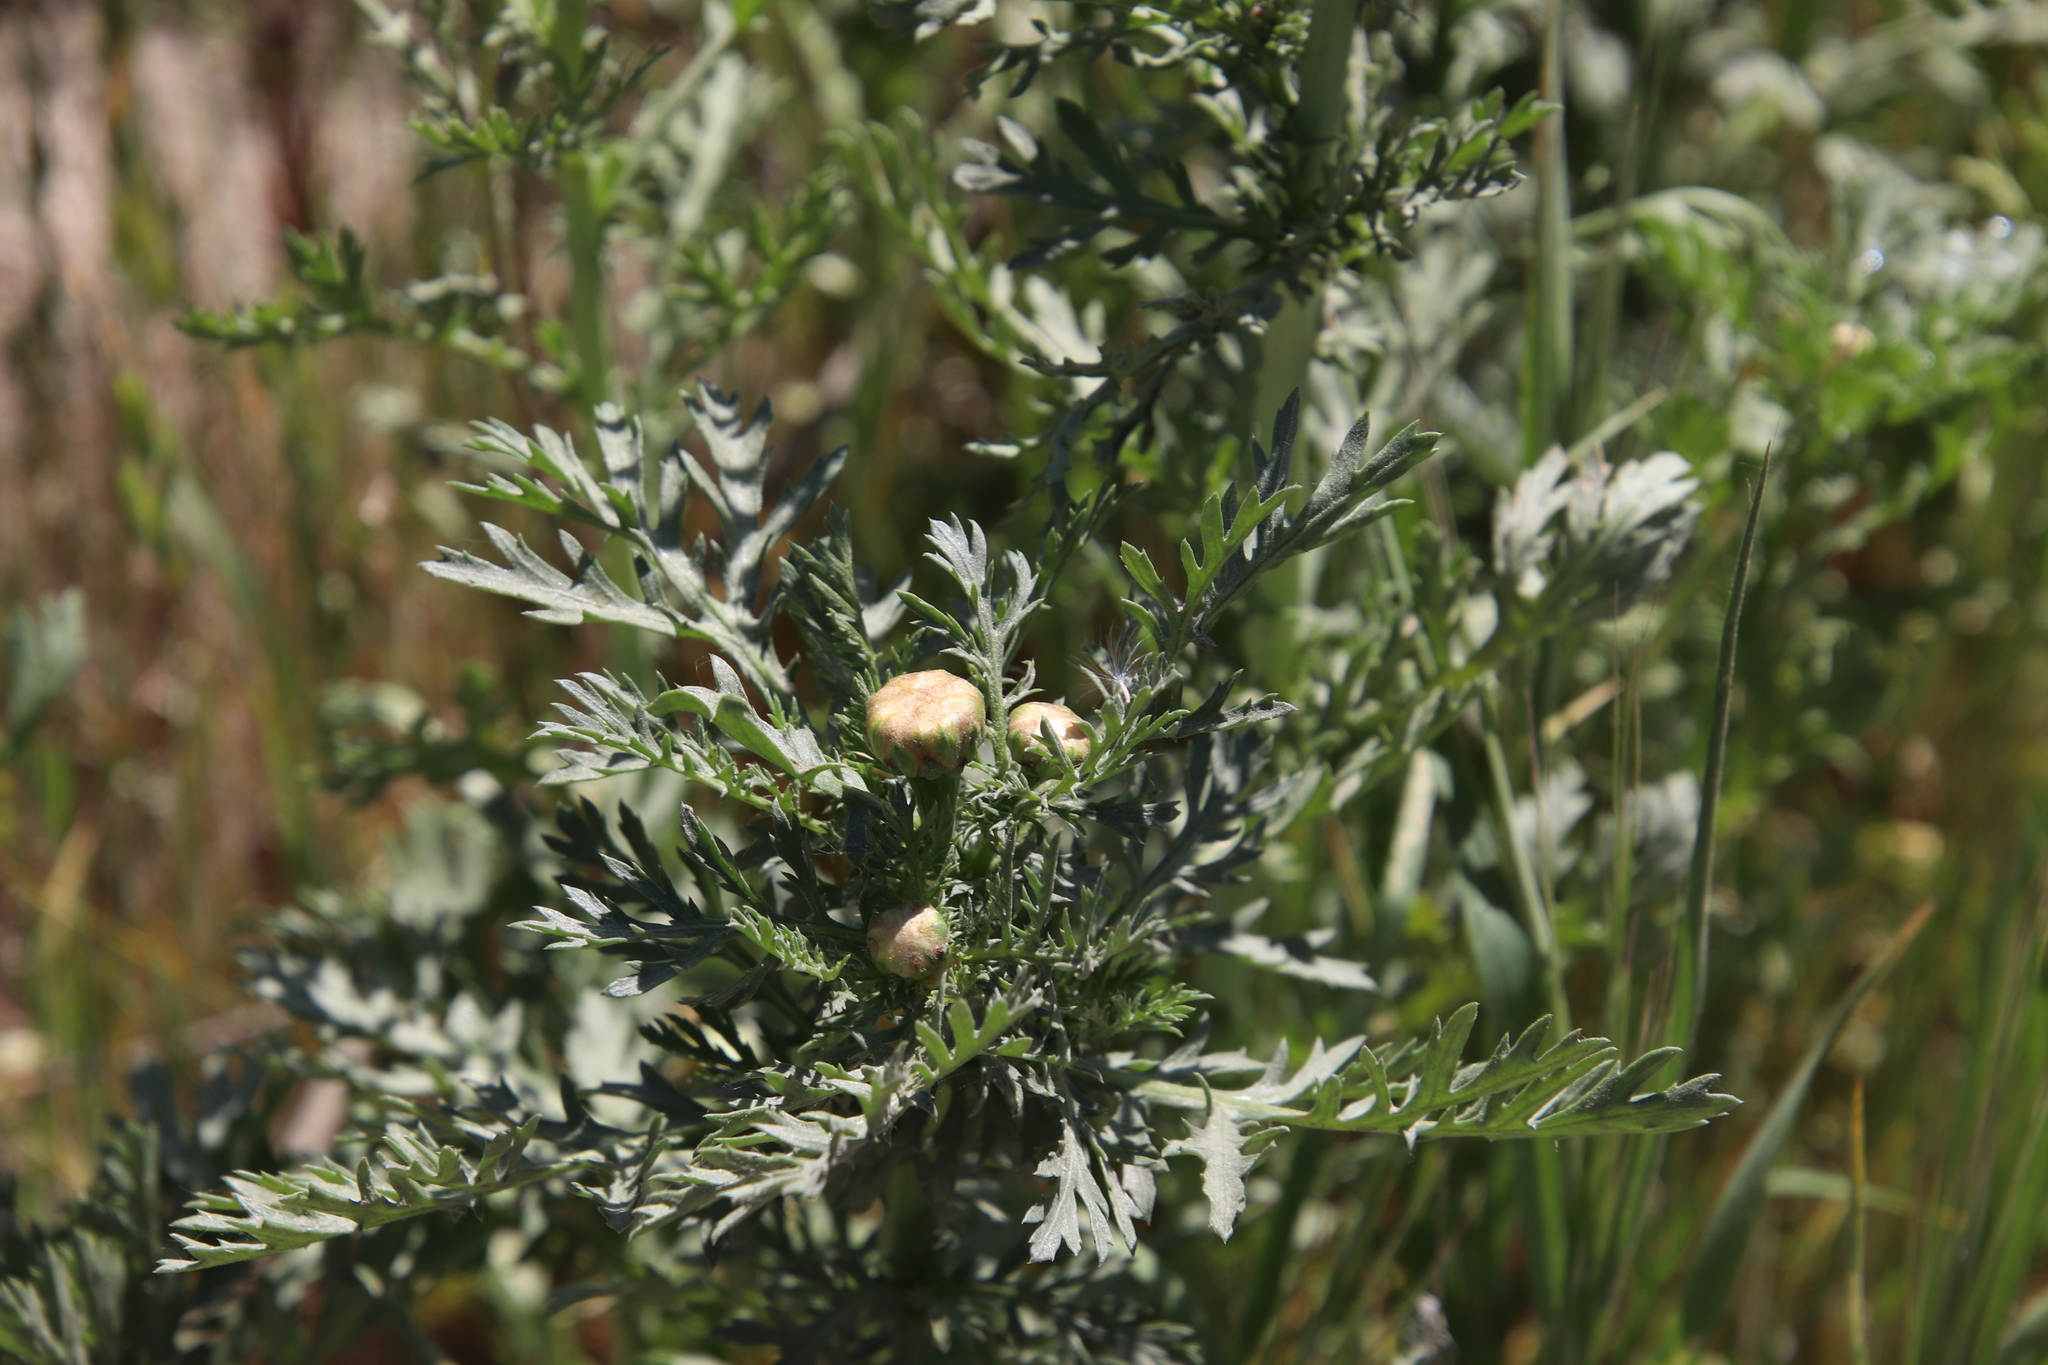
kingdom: Plantae
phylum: Tracheophyta
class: Magnoliopsida
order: Asterales
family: Asteraceae
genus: Glebionis
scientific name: Glebionis coronaria
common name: Crowndaisy
